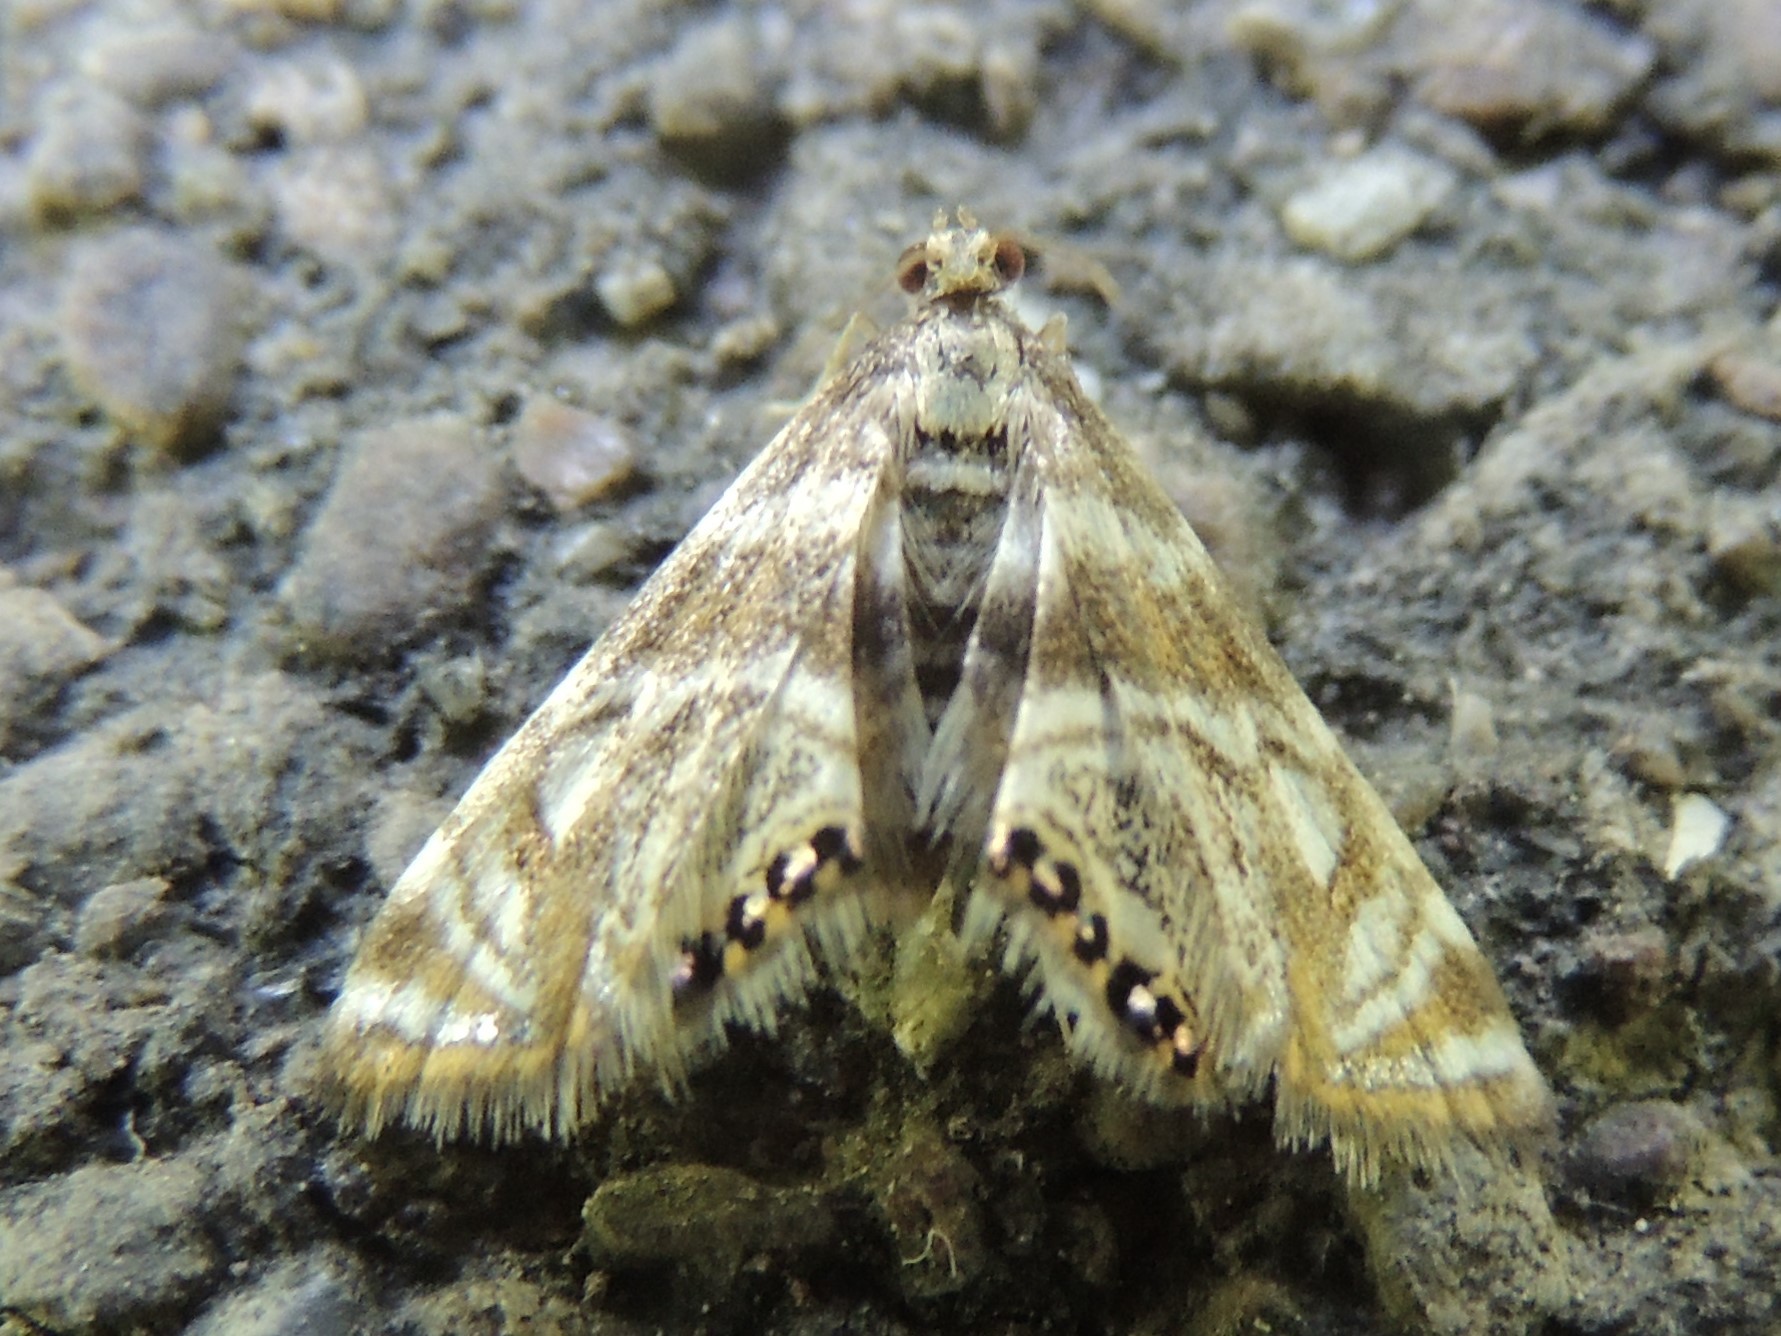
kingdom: Animalia
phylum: Arthropoda
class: Insecta
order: Lepidoptera
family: Crambidae
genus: Petrophila
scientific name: Petrophila canadensis
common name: Canadian petrophila
